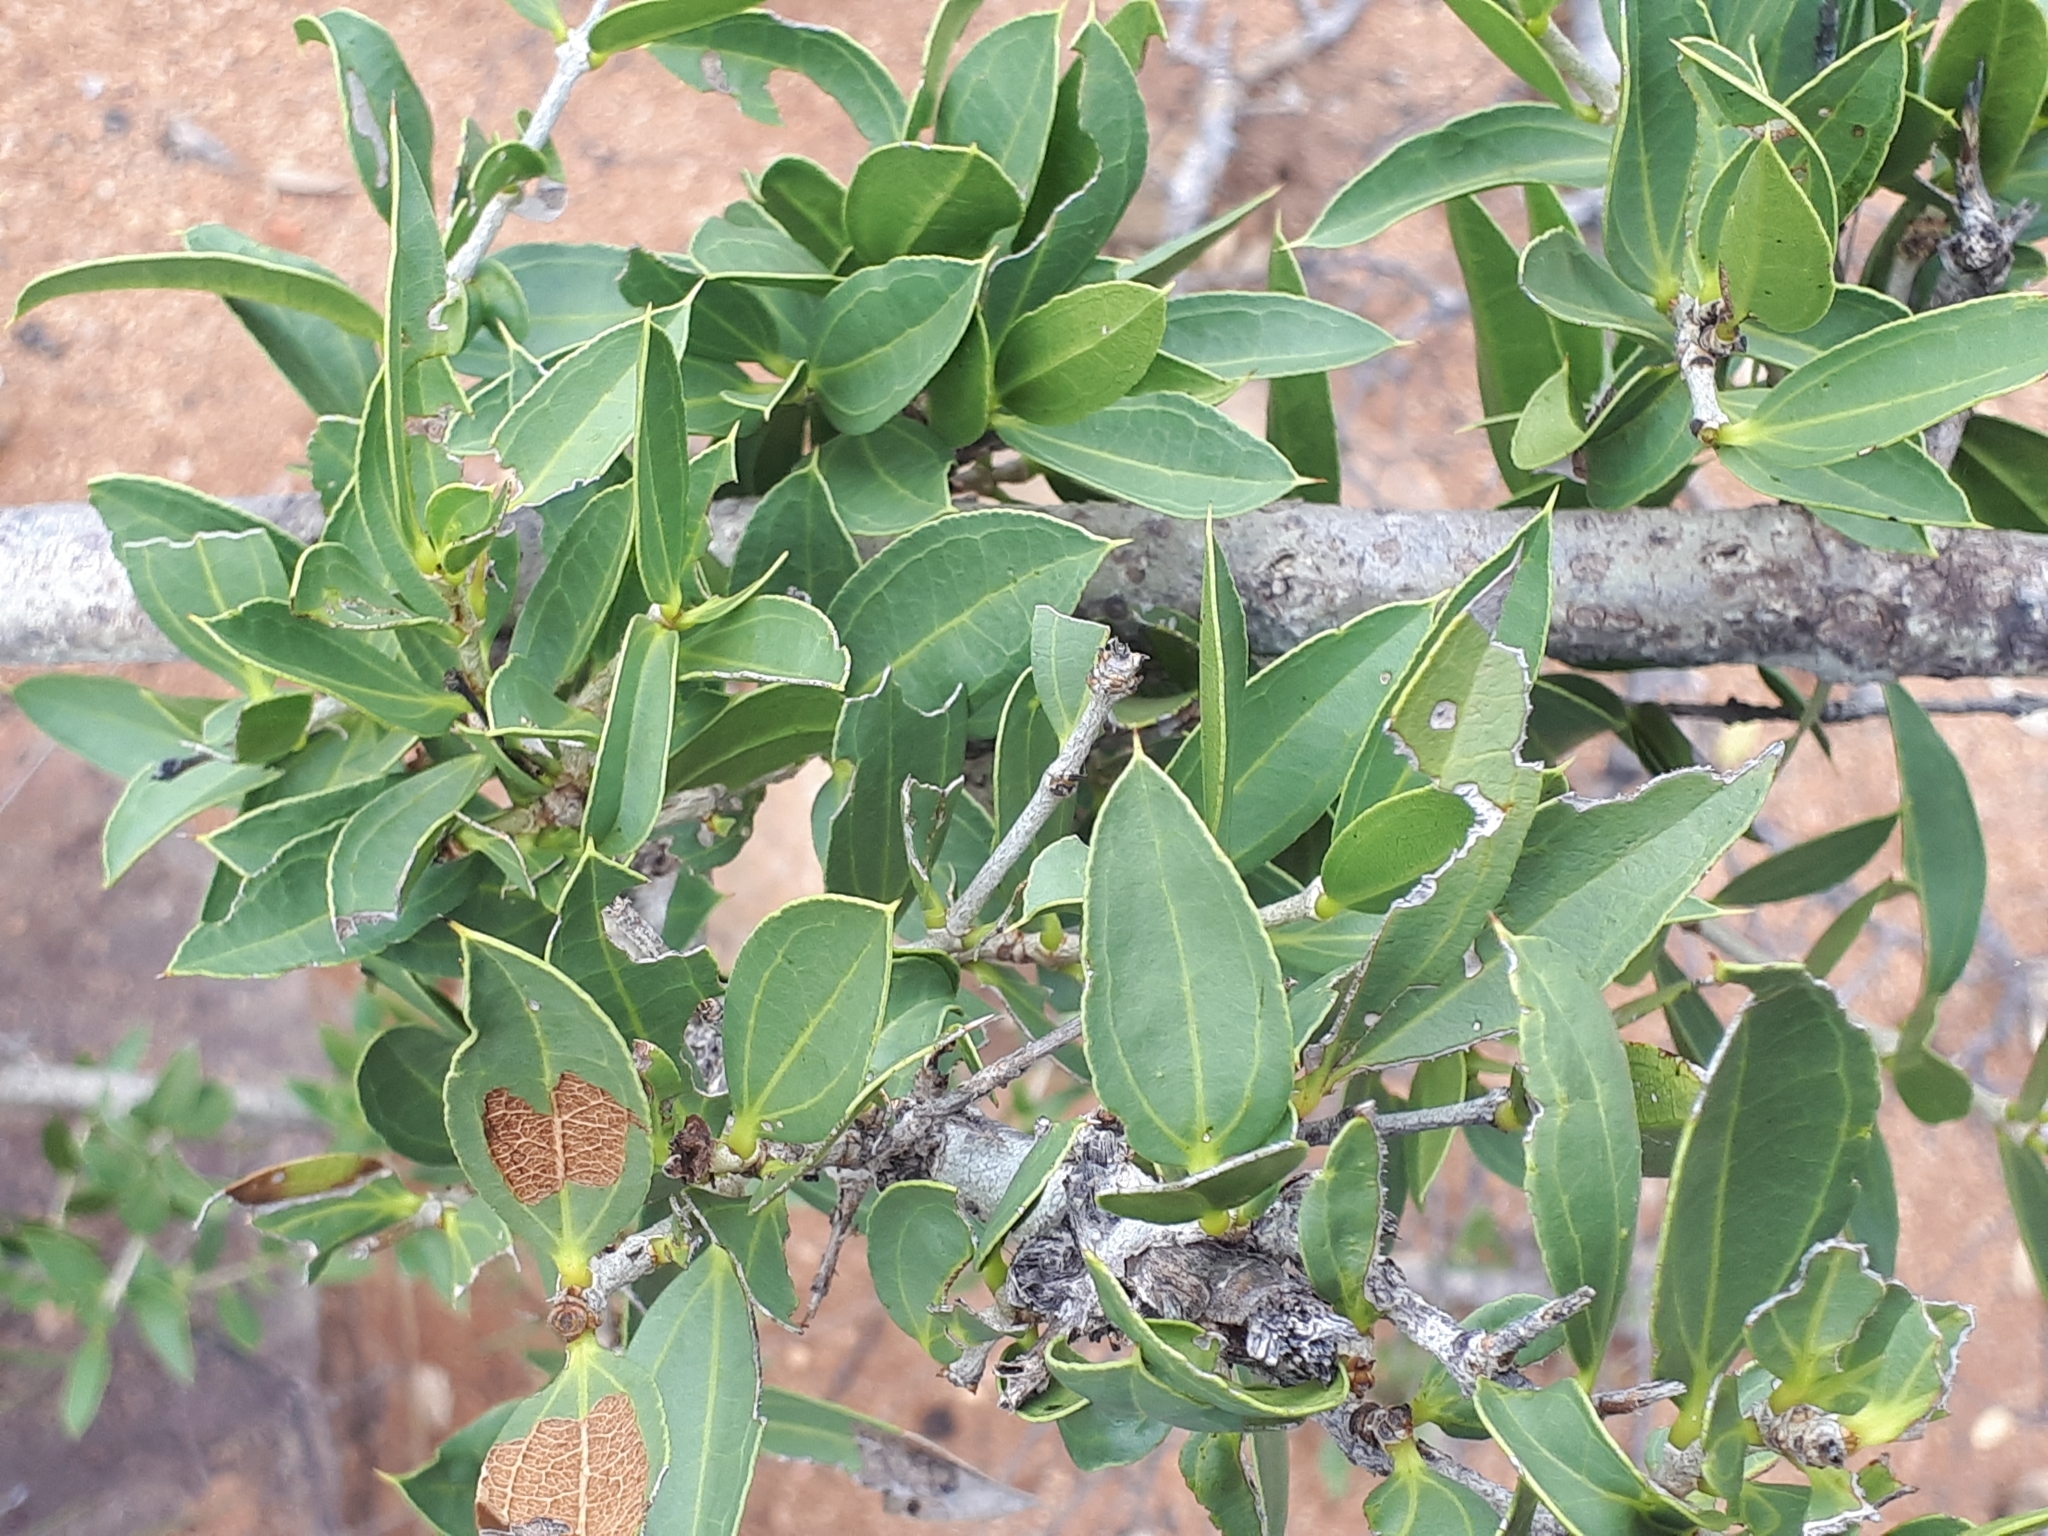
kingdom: Plantae
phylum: Tracheophyta
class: Magnoliopsida
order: Gentianales
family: Loganiaceae
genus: Strychnos
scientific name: Strychnos pungens
